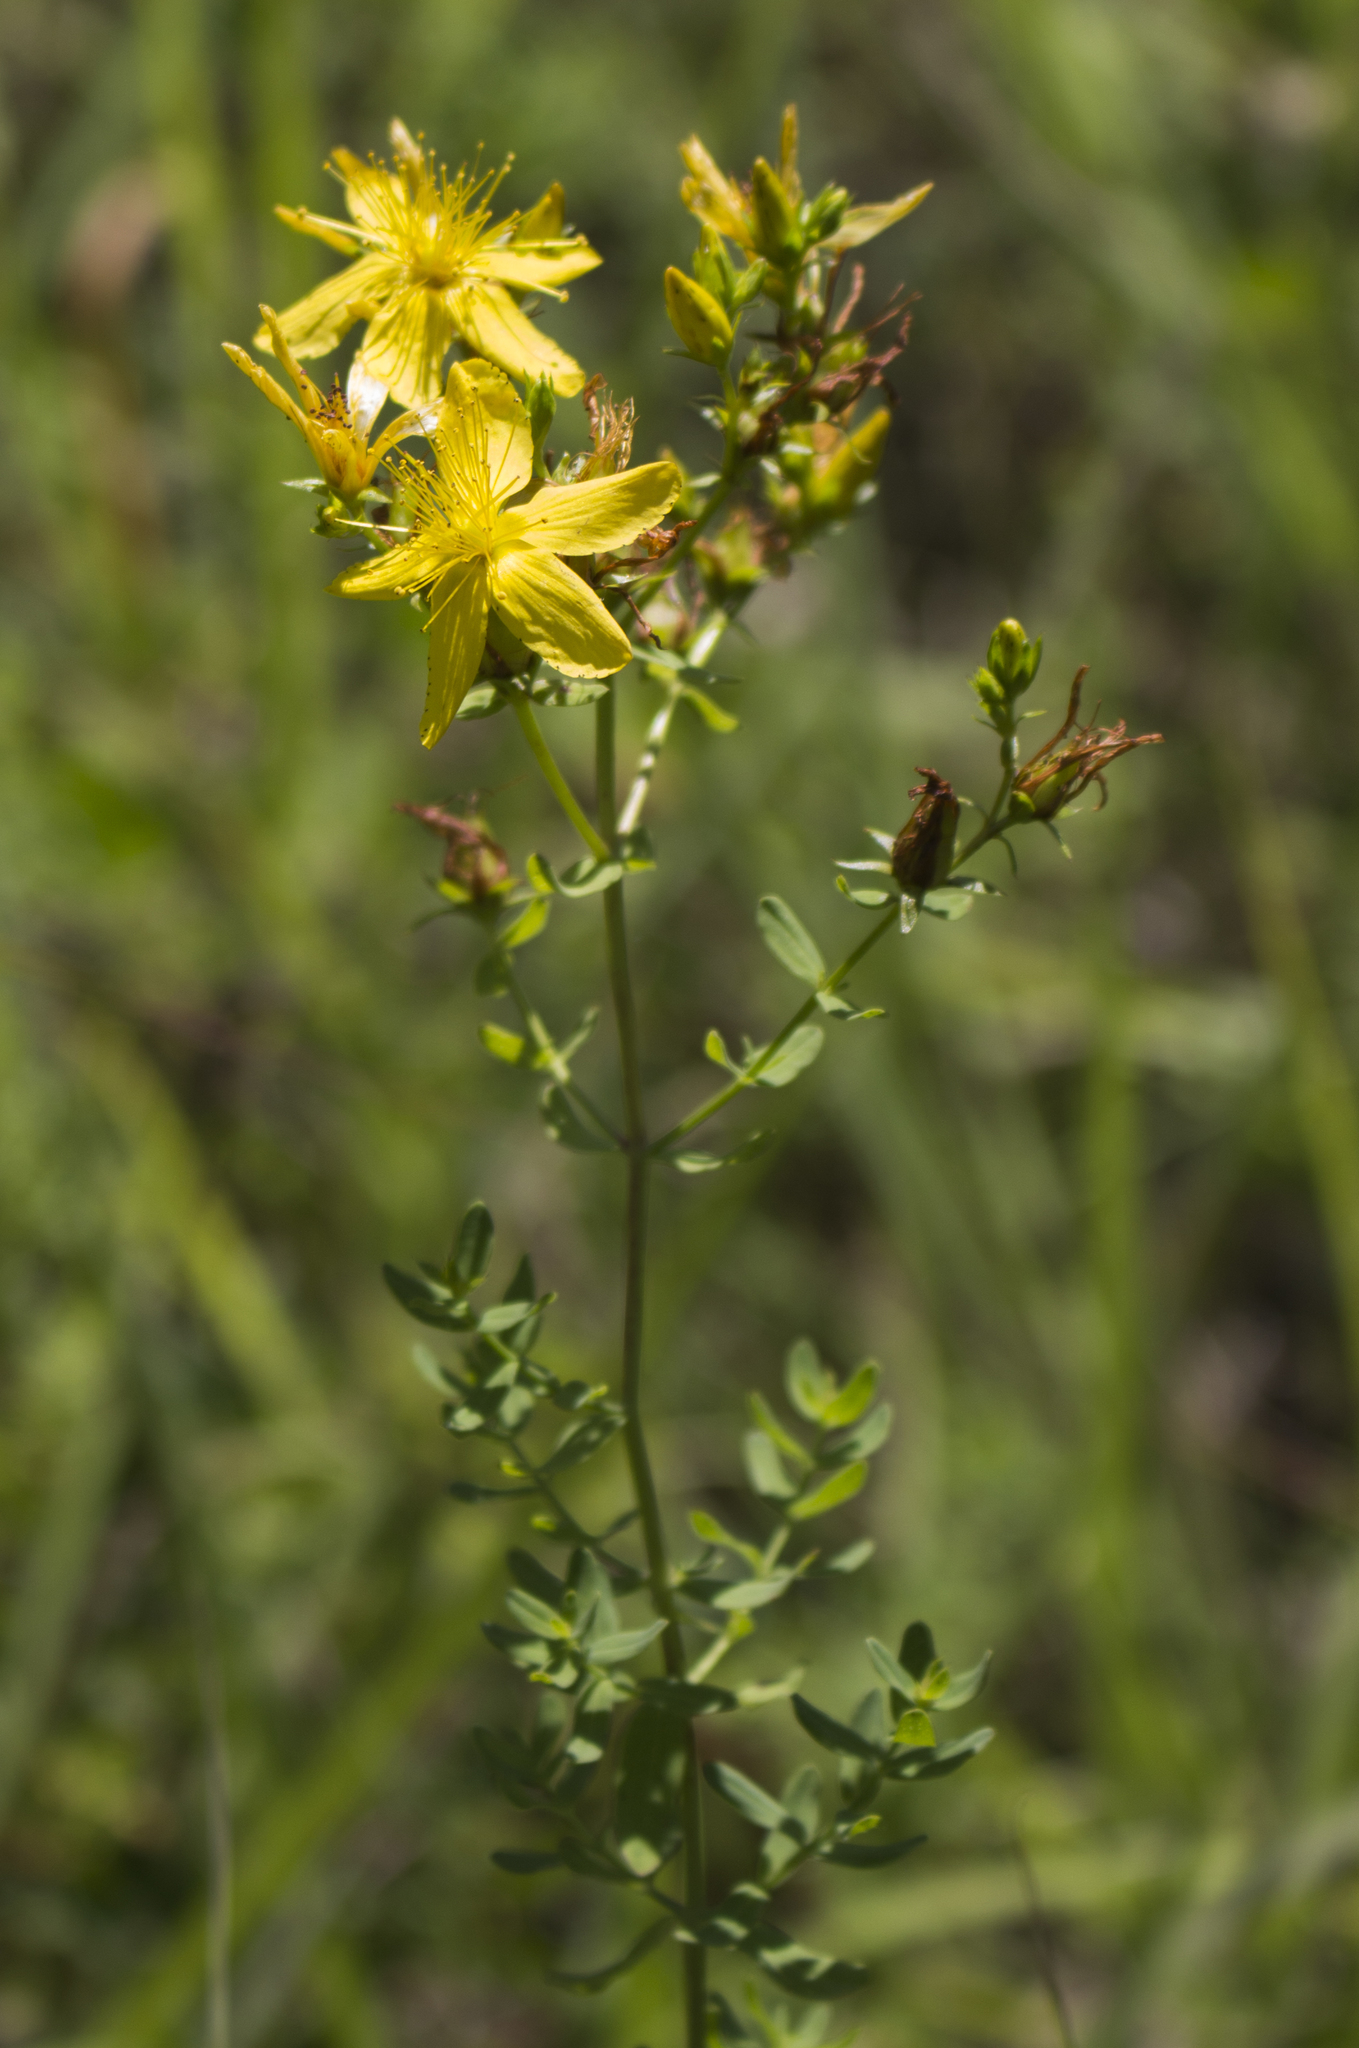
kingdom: Plantae
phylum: Tracheophyta
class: Magnoliopsida
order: Malpighiales
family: Hypericaceae
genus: Hypericum
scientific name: Hypericum perforatum
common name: Common st. johnswort
